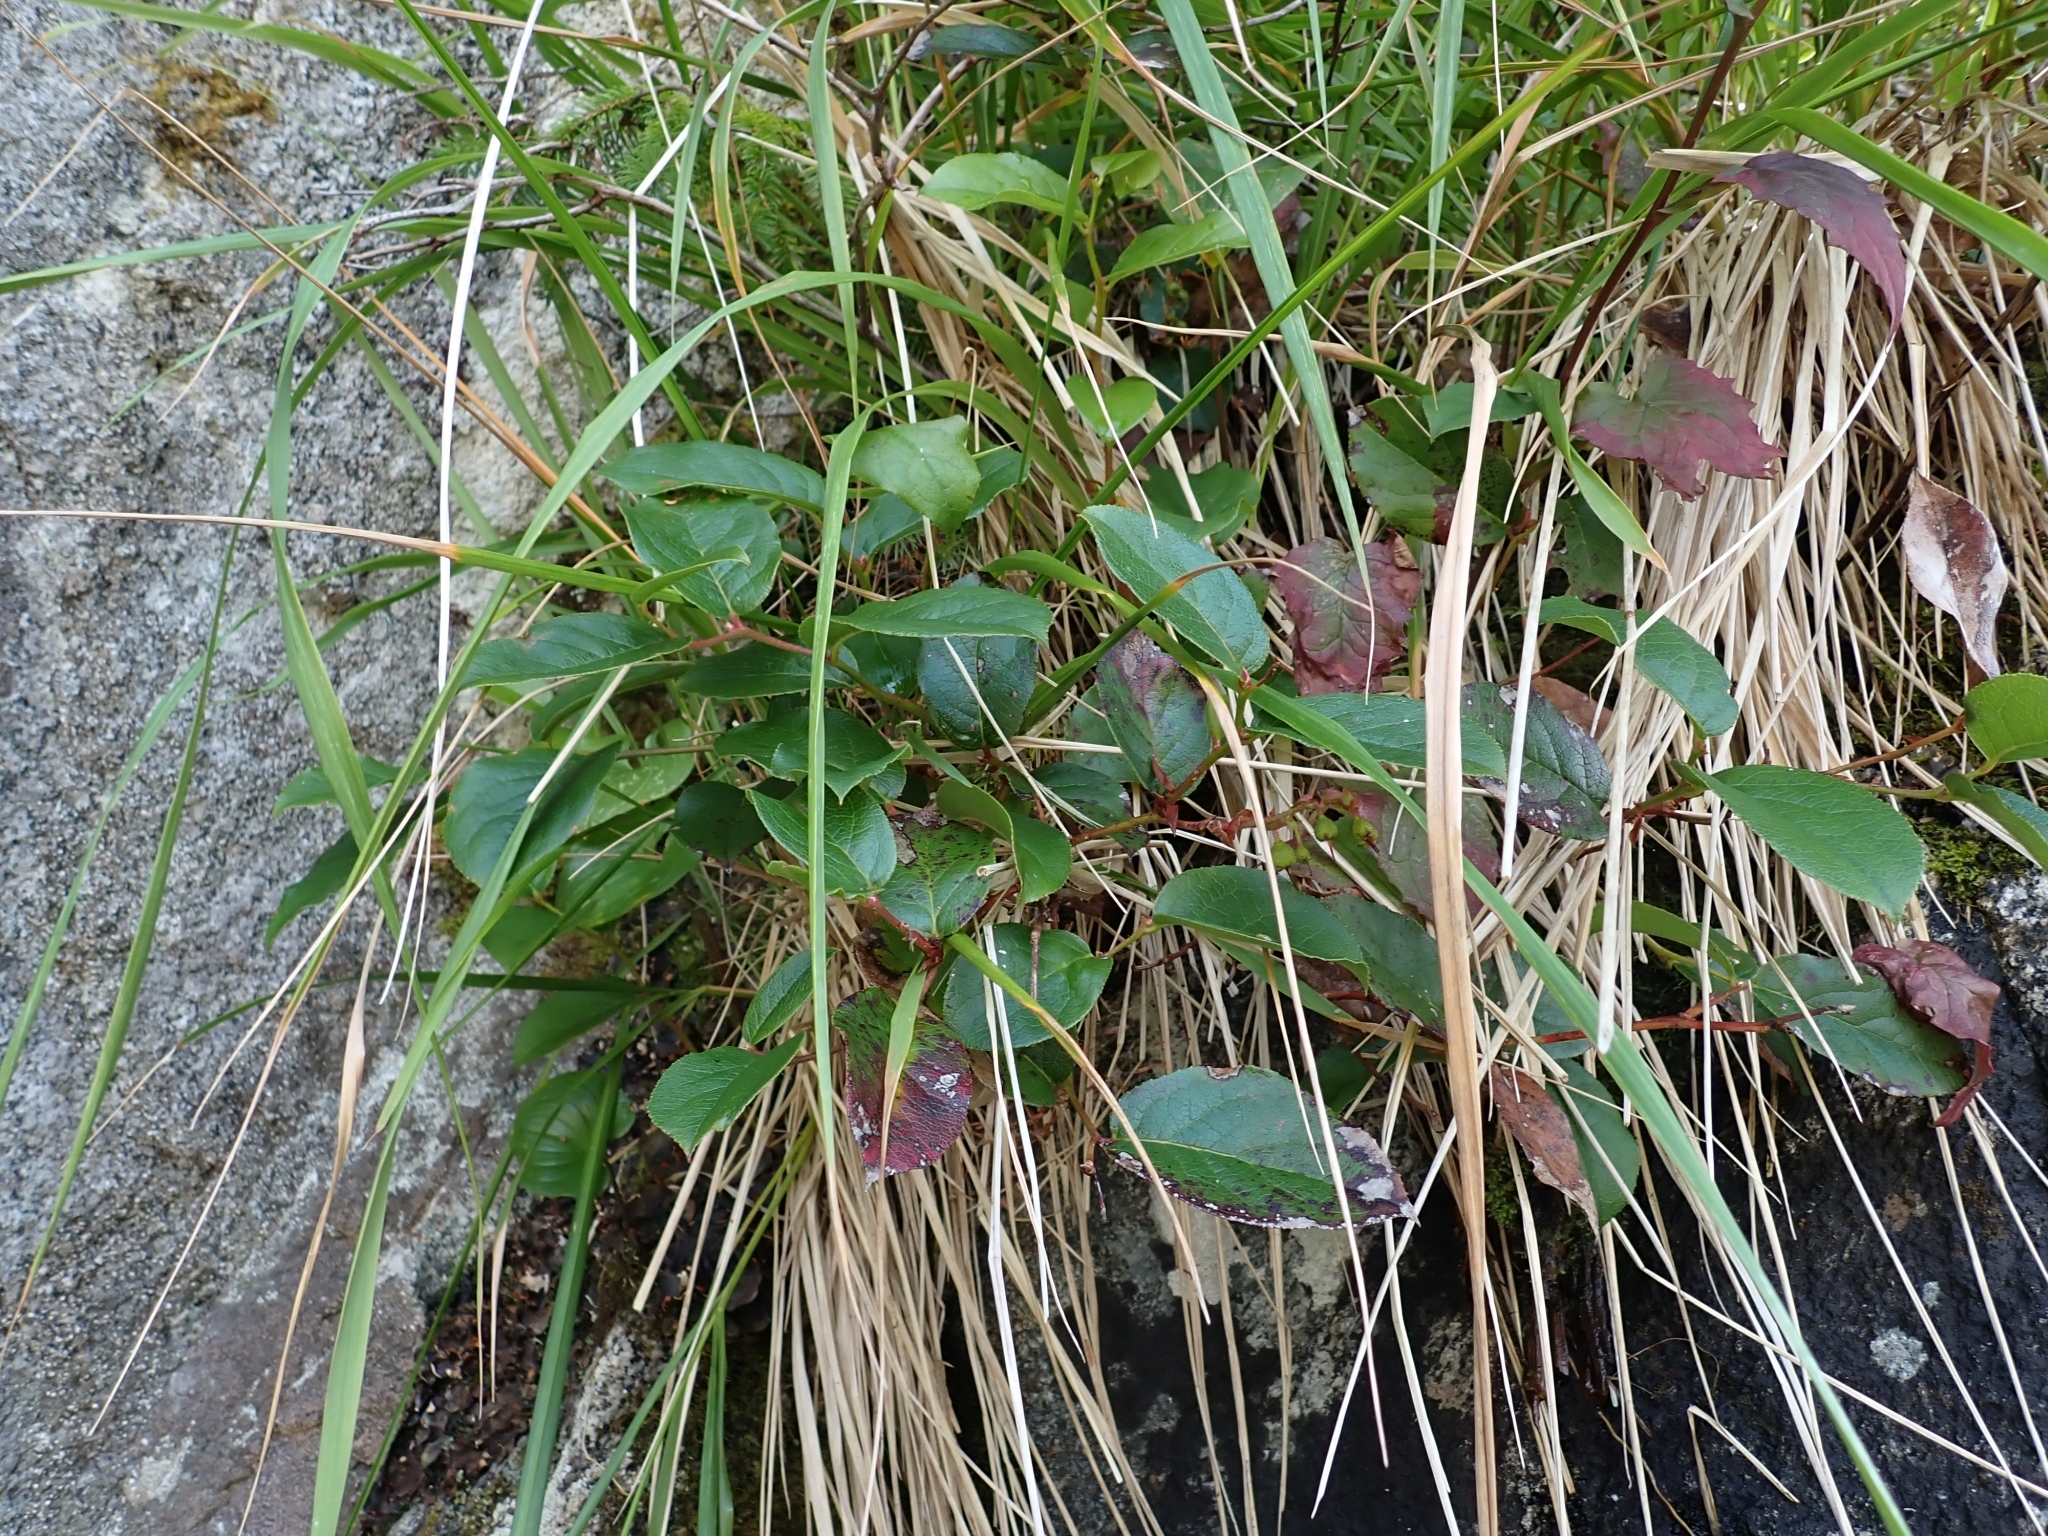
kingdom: Plantae
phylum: Tracheophyta
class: Magnoliopsida
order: Ericales
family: Ericaceae
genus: Gaultheria
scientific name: Gaultheria shallon
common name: Shallon
